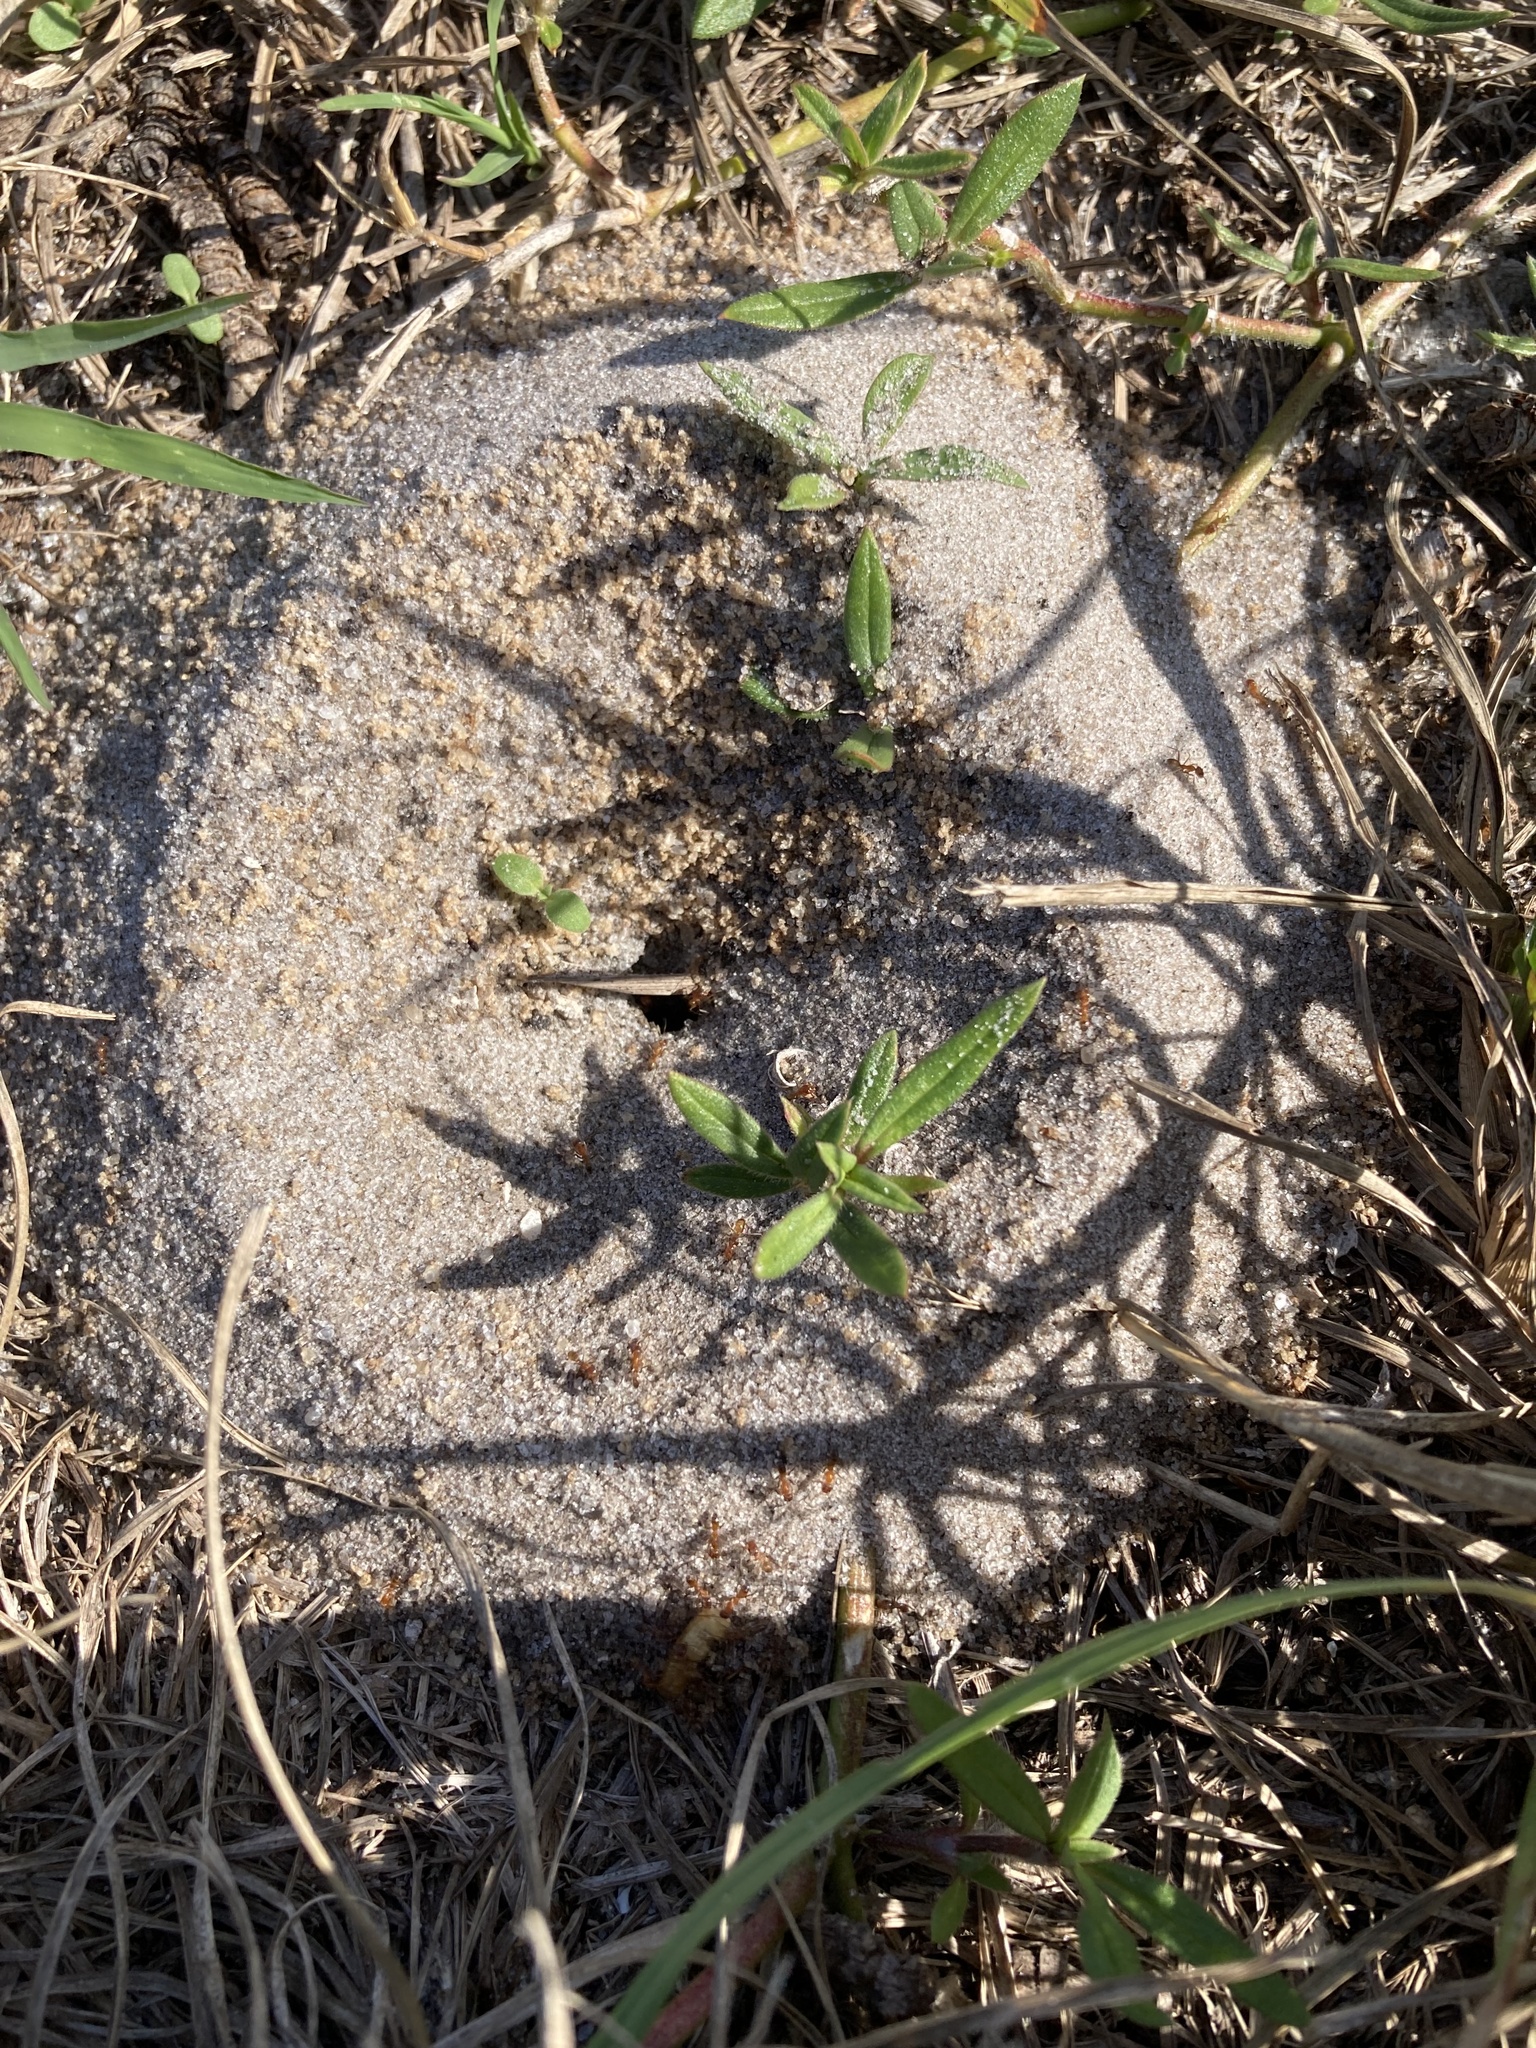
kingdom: Animalia
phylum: Arthropoda
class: Insecta
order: Hymenoptera
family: Formicidae
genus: Dorymyrmex
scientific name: Dorymyrmex bureni
